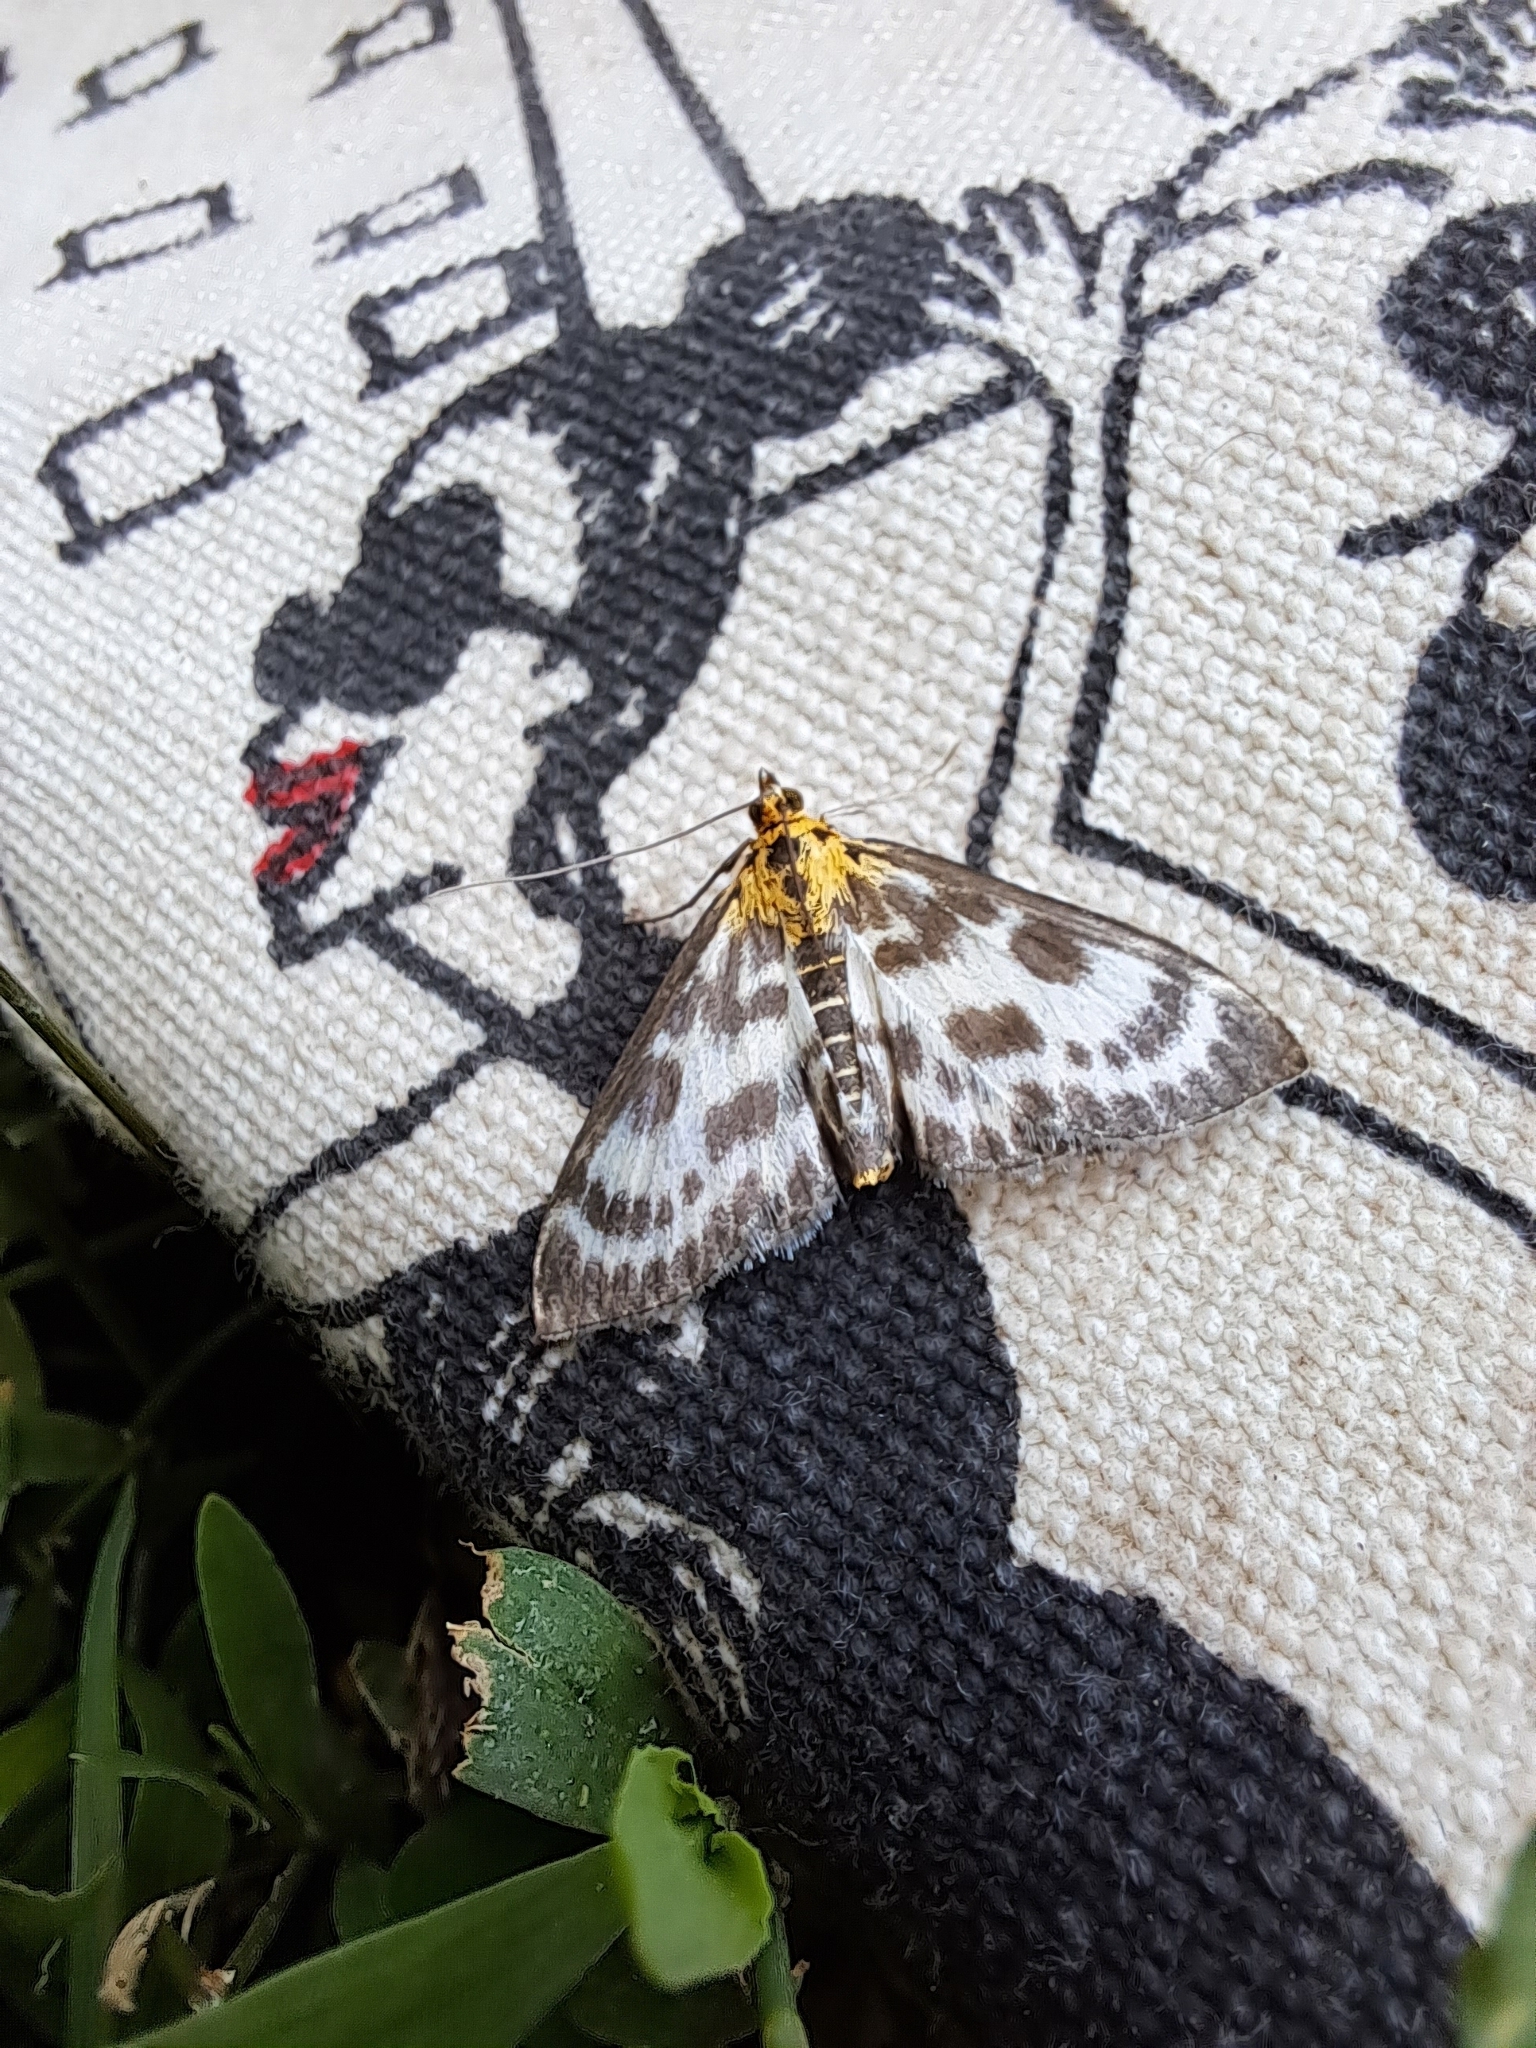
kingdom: Animalia
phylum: Arthropoda
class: Insecta
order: Lepidoptera
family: Crambidae
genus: Anania
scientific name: Anania hortulata
